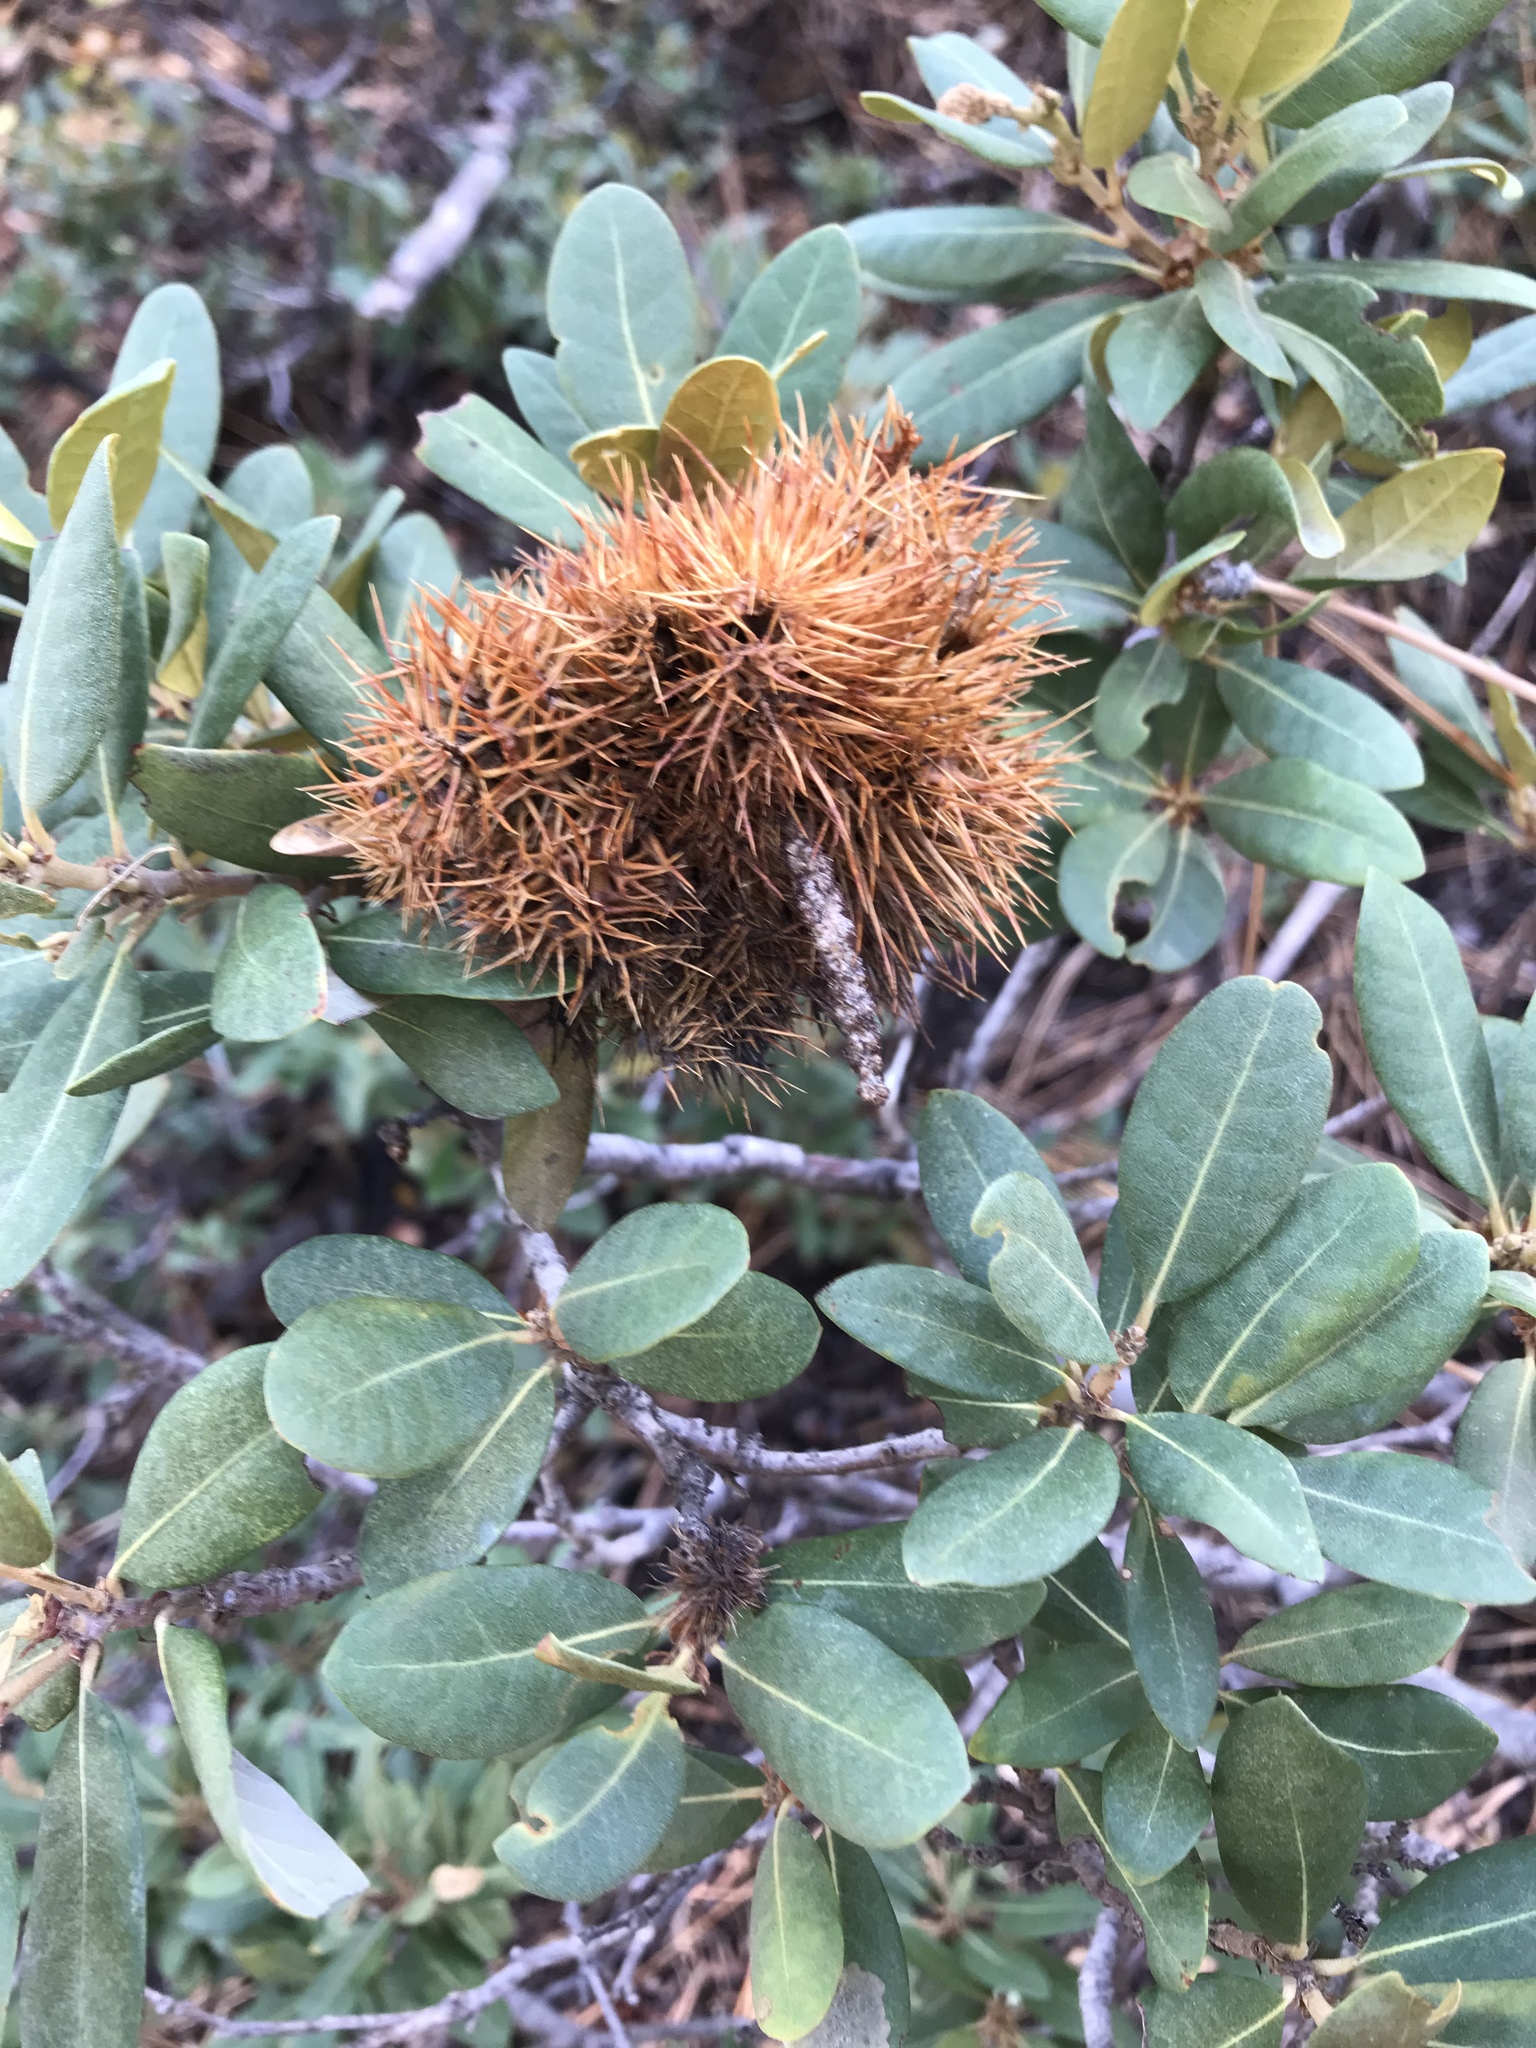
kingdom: Plantae
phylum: Tracheophyta
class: Magnoliopsida
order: Fagales
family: Fagaceae
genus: Chrysolepis
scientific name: Chrysolepis sempervirens
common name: Bush chinquapin
